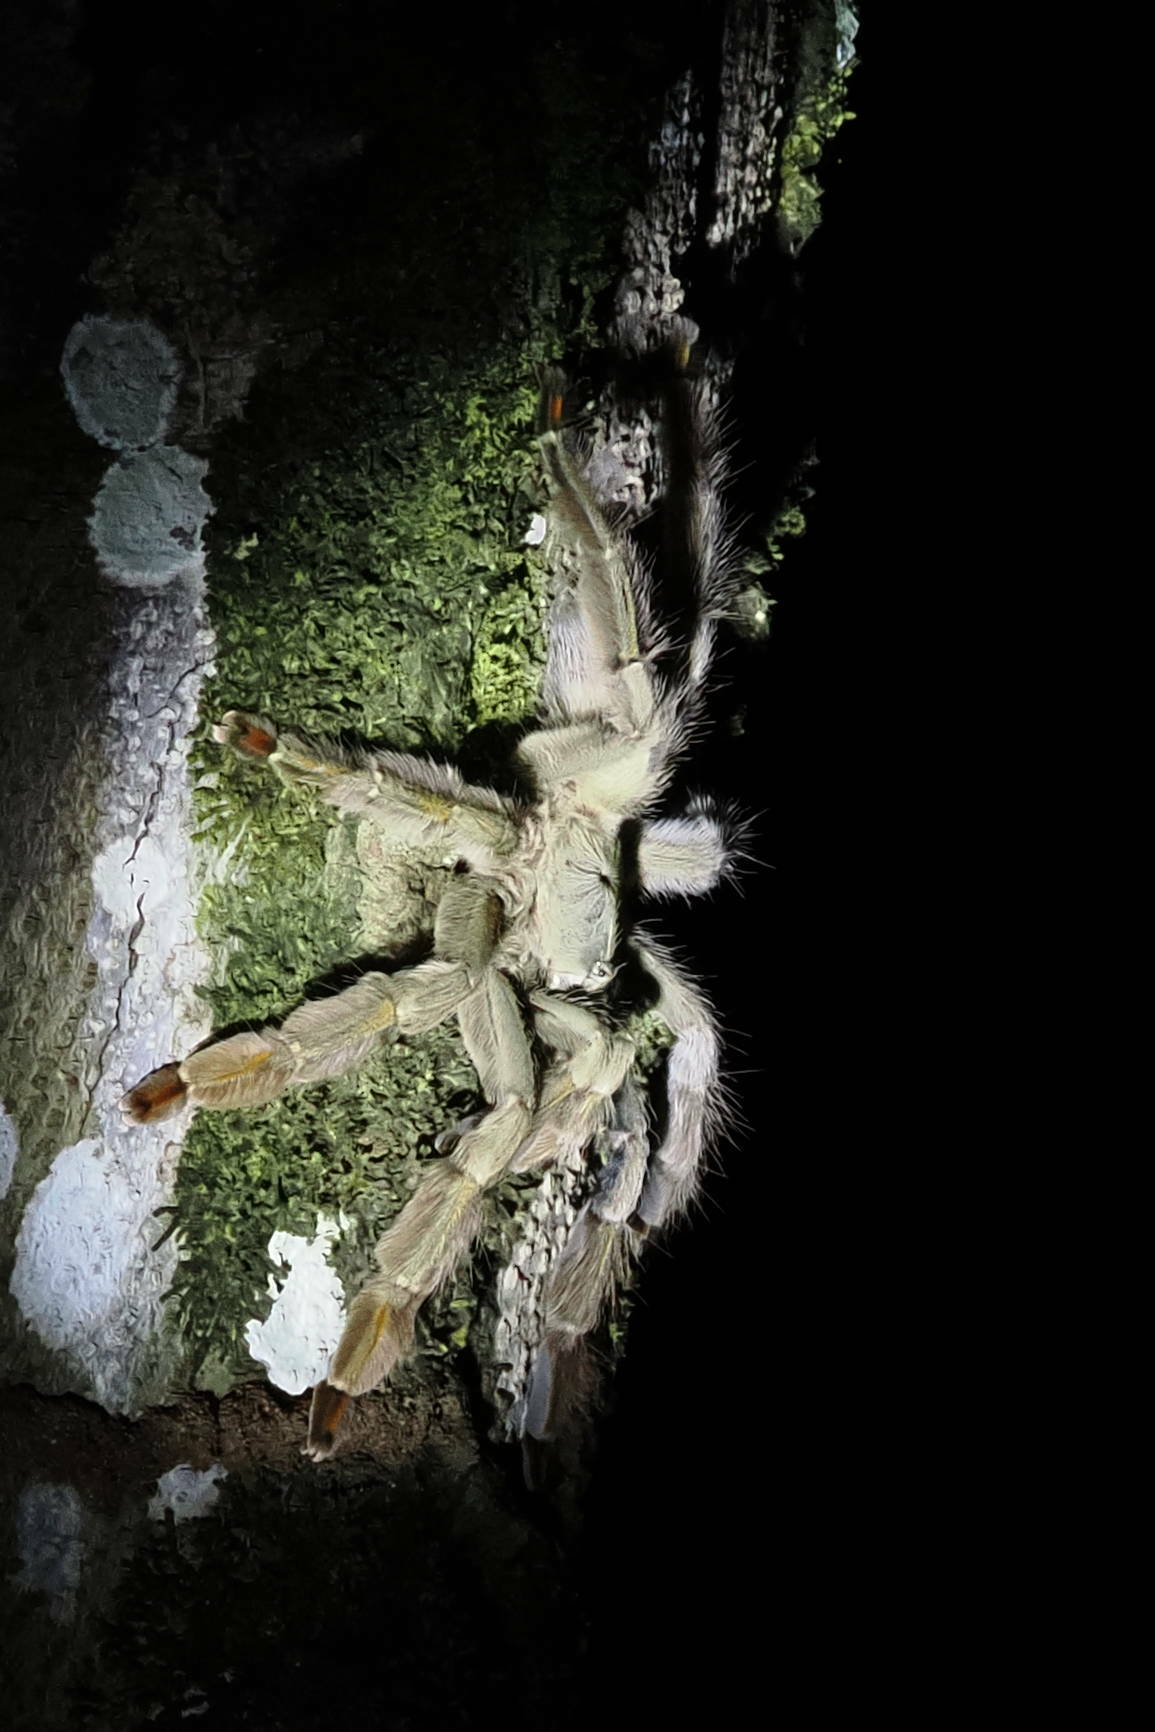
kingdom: Animalia
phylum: Arthropoda
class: Arachnida
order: Araneae
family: Theraphosidae
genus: Psalmopoeus
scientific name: Psalmopoeus cambridgei
